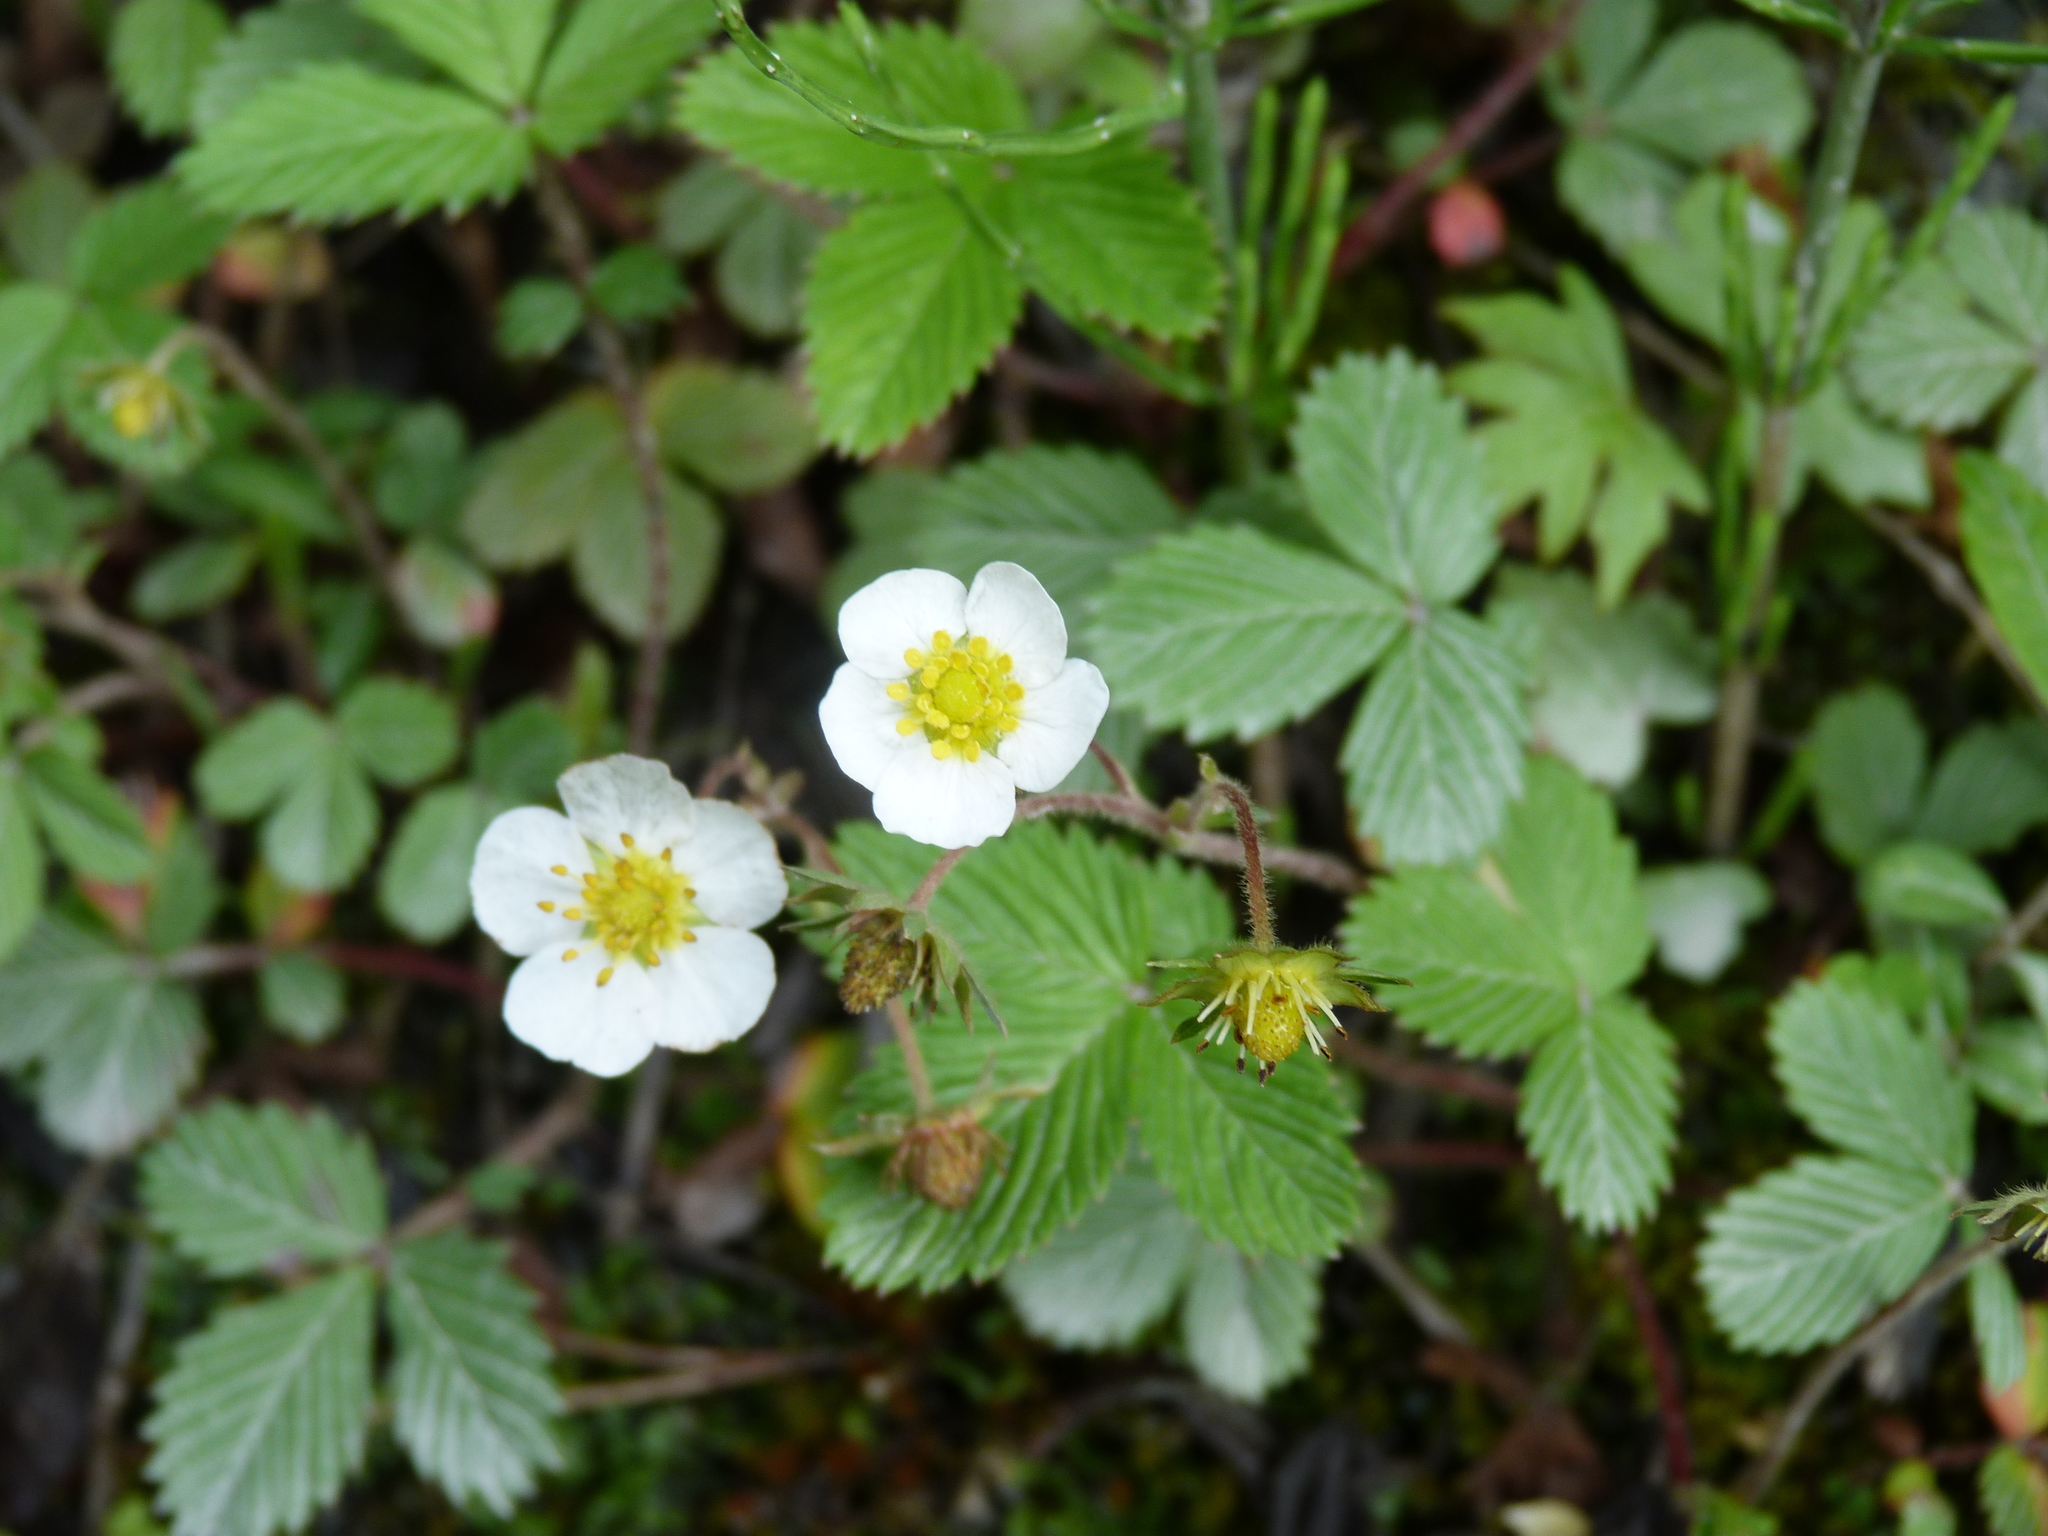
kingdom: Plantae
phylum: Tracheophyta
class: Magnoliopsida
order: Rosales
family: Rosaceae
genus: Fragaria
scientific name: Fragaria moupinensis
